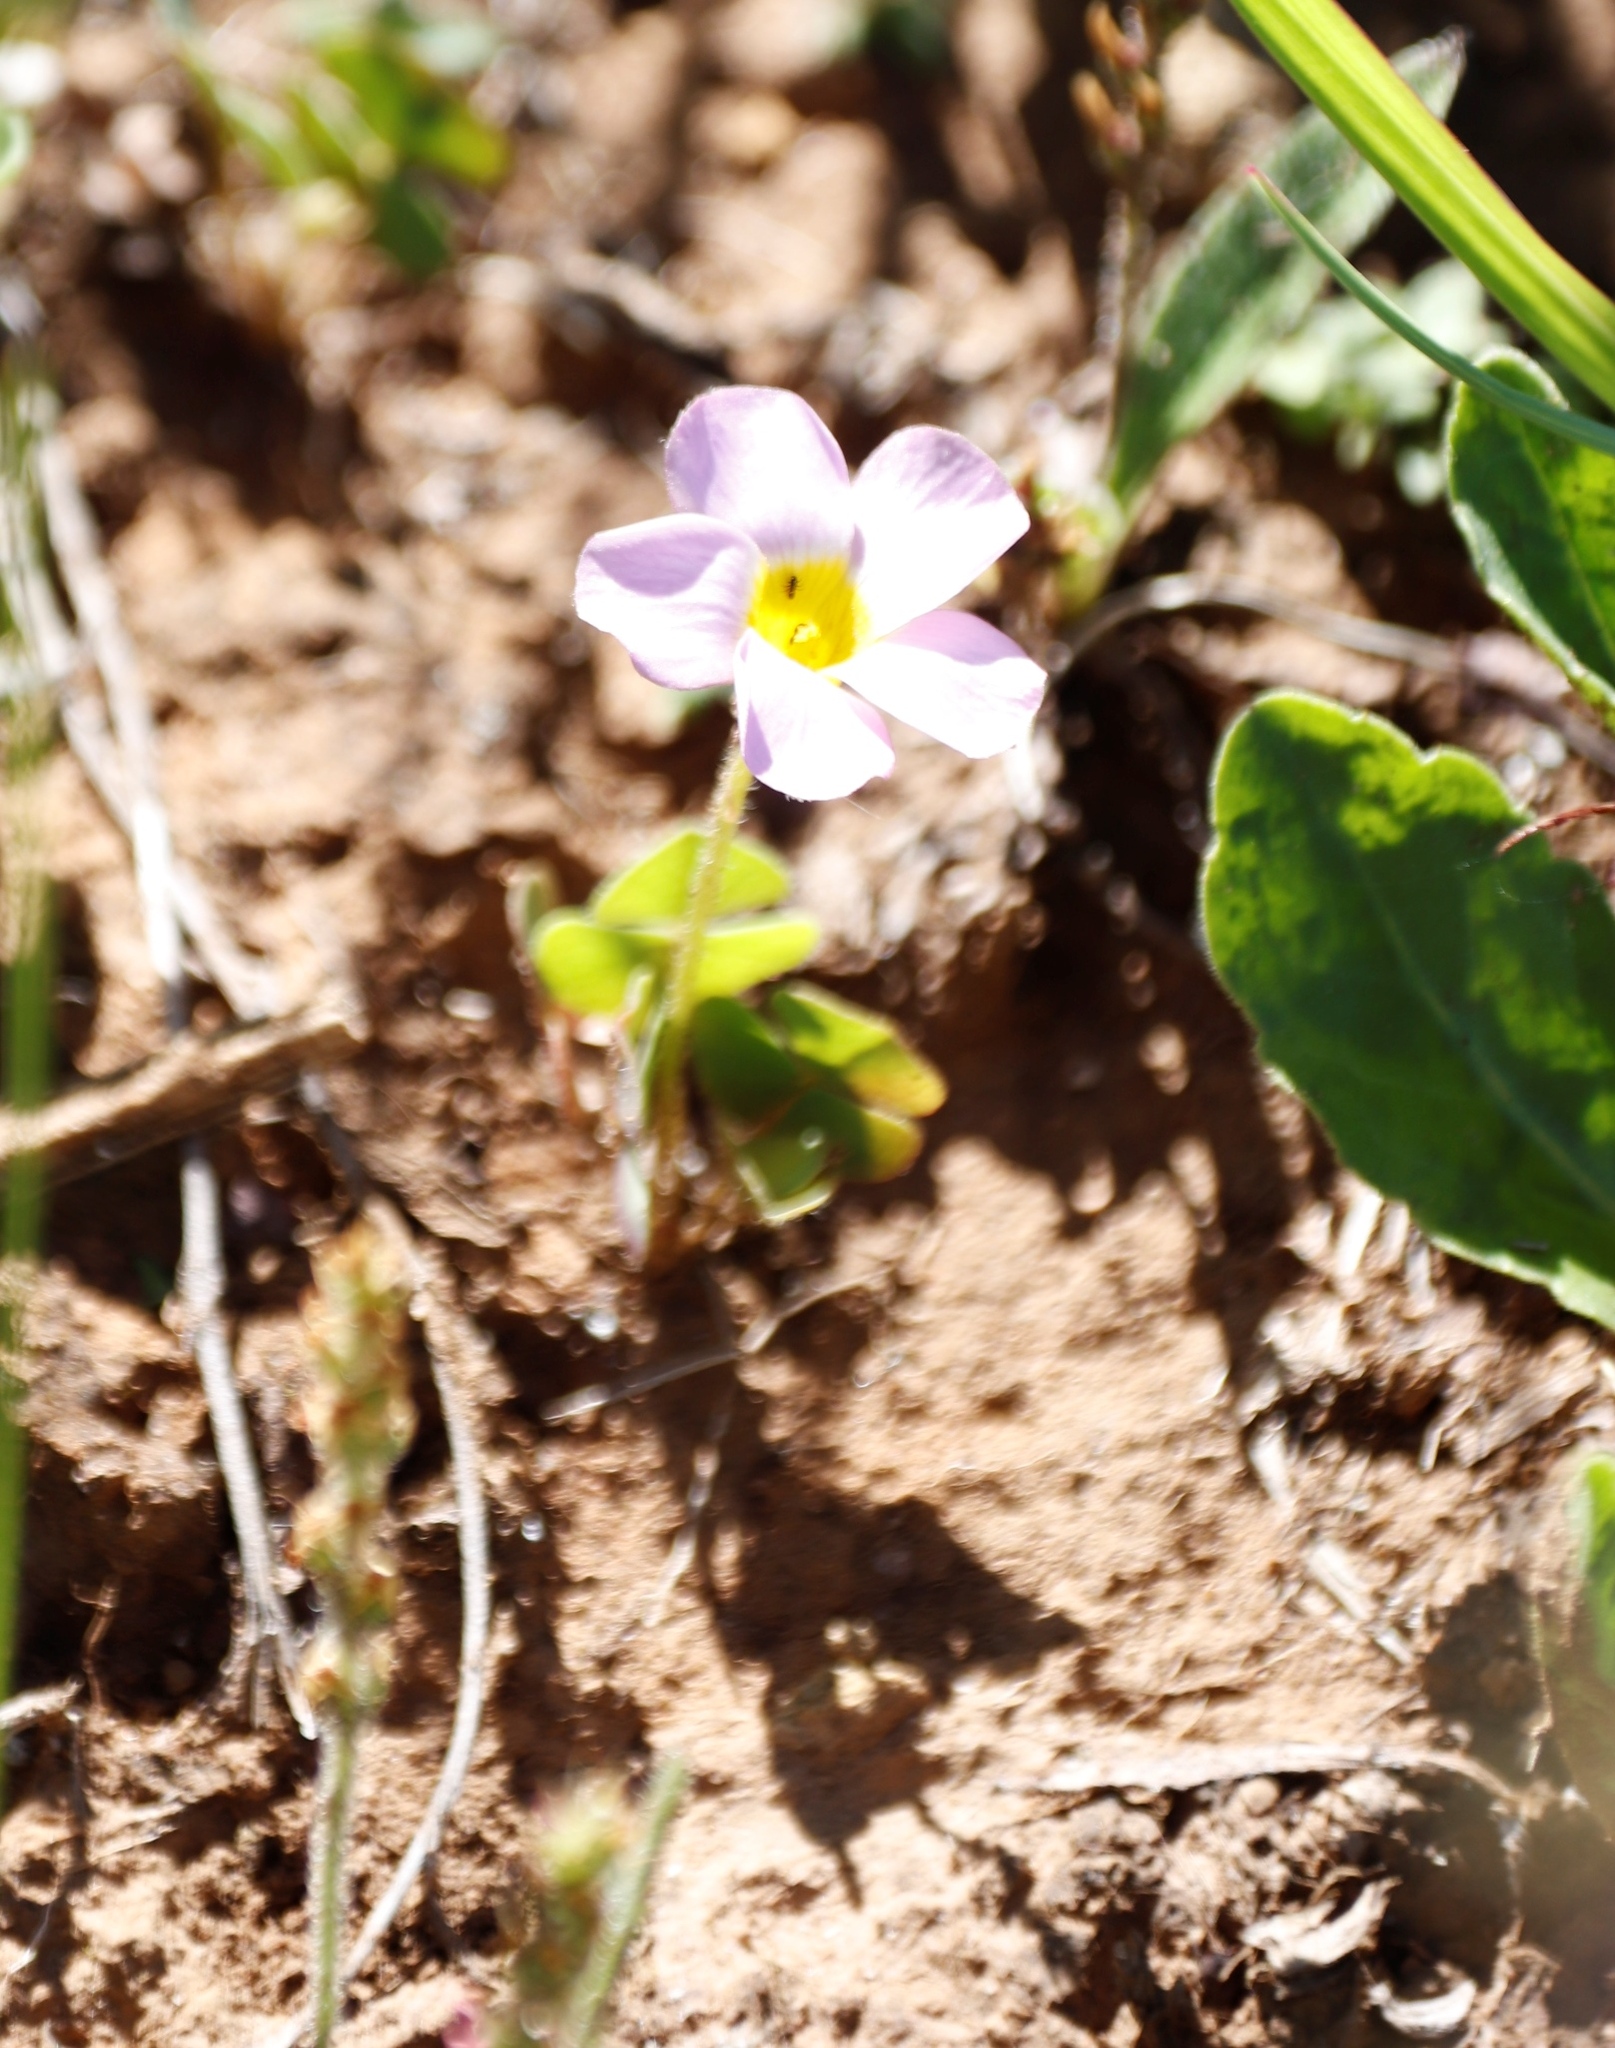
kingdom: Plantae
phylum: Tracheophyta
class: Magnoliopsida
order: Oxalidales
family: Oxalidaceae
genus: Oxalis
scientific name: Oxalis obliquifolia
